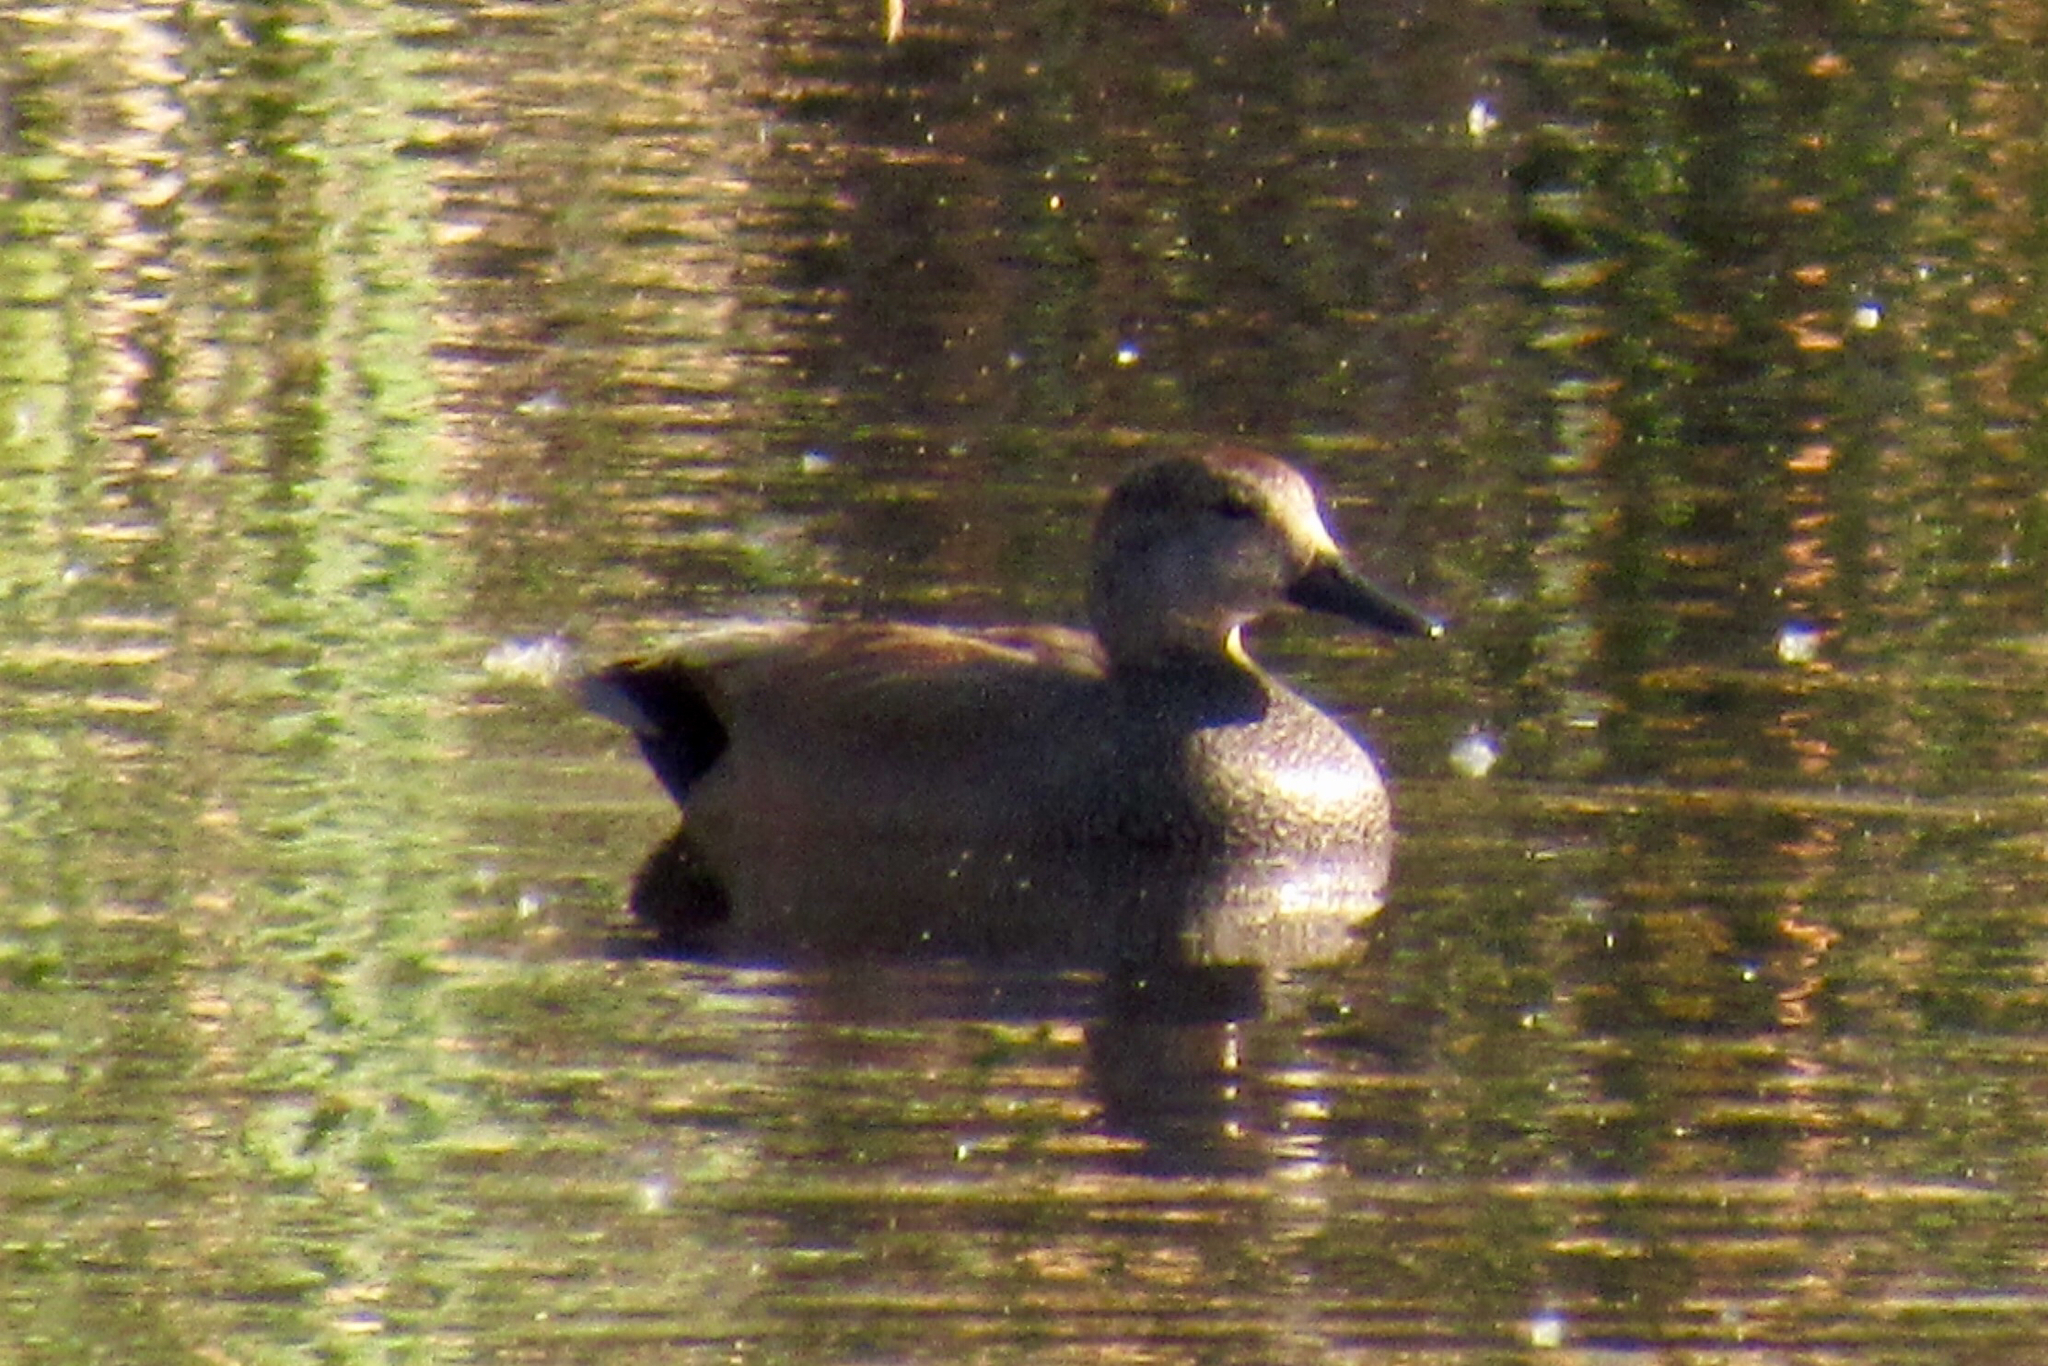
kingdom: Animalia
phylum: Chordata
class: Aves
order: Anseriformes
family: Anatidae
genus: Mareca
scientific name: Mareca strepera
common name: Gadwall
